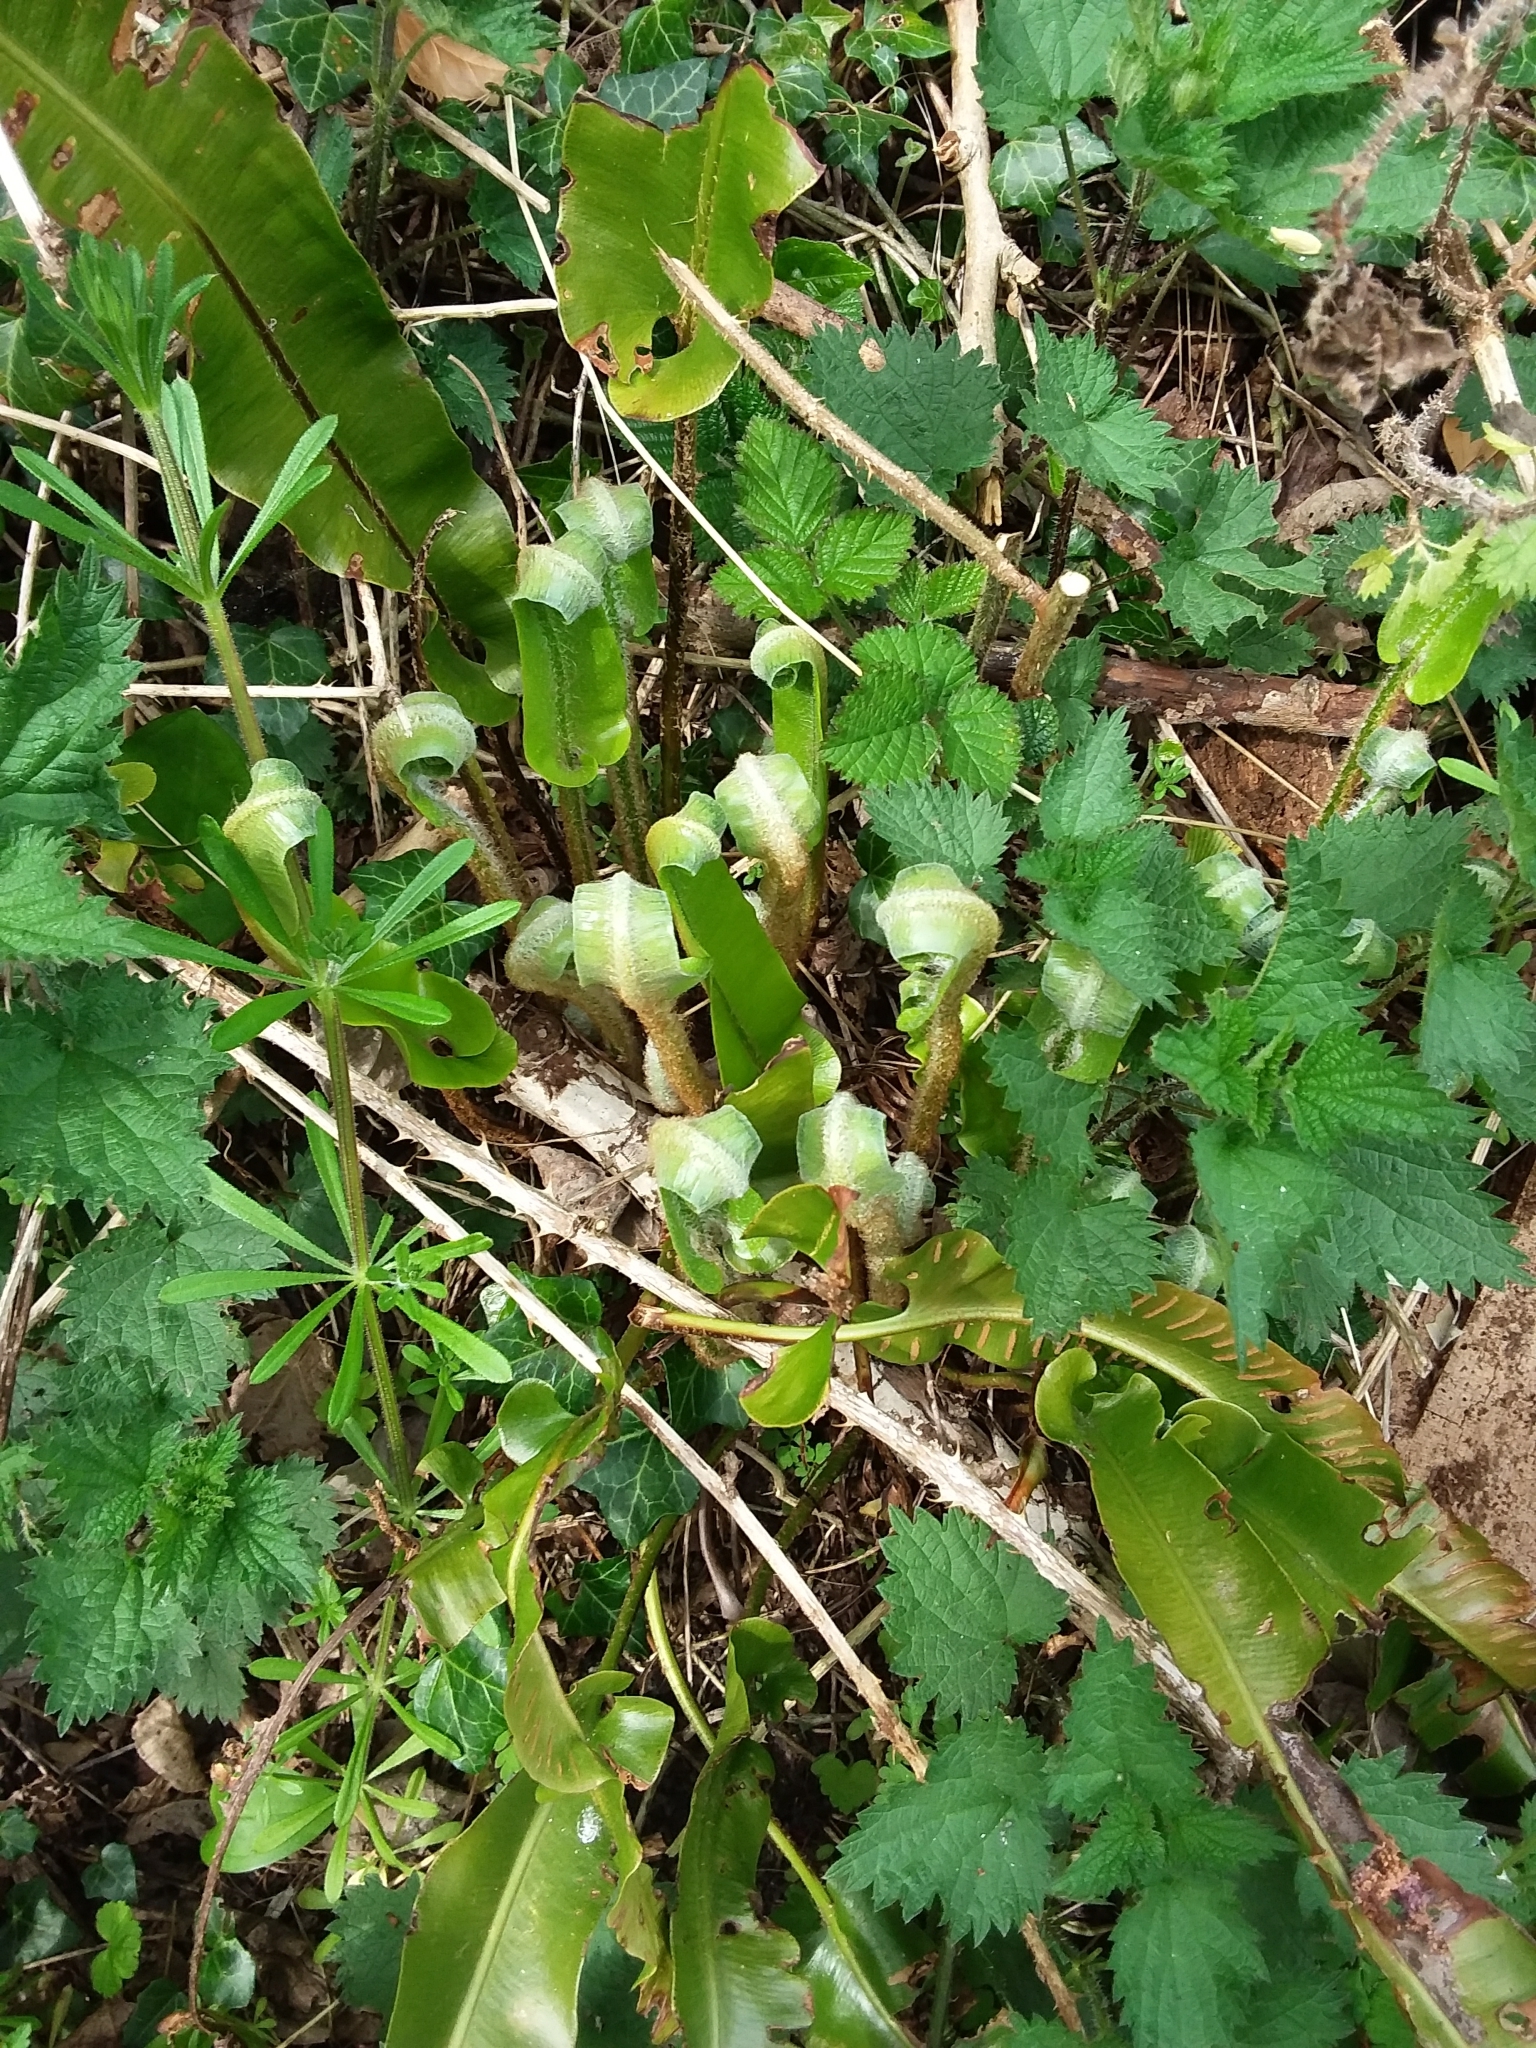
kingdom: Plantae
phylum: Tracheophyta
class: Polypodiopsida
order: Polypodiales
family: Aspleniaceae
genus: Asplenium
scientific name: Asplenium scolopendrium
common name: Hart's-tongue fern
